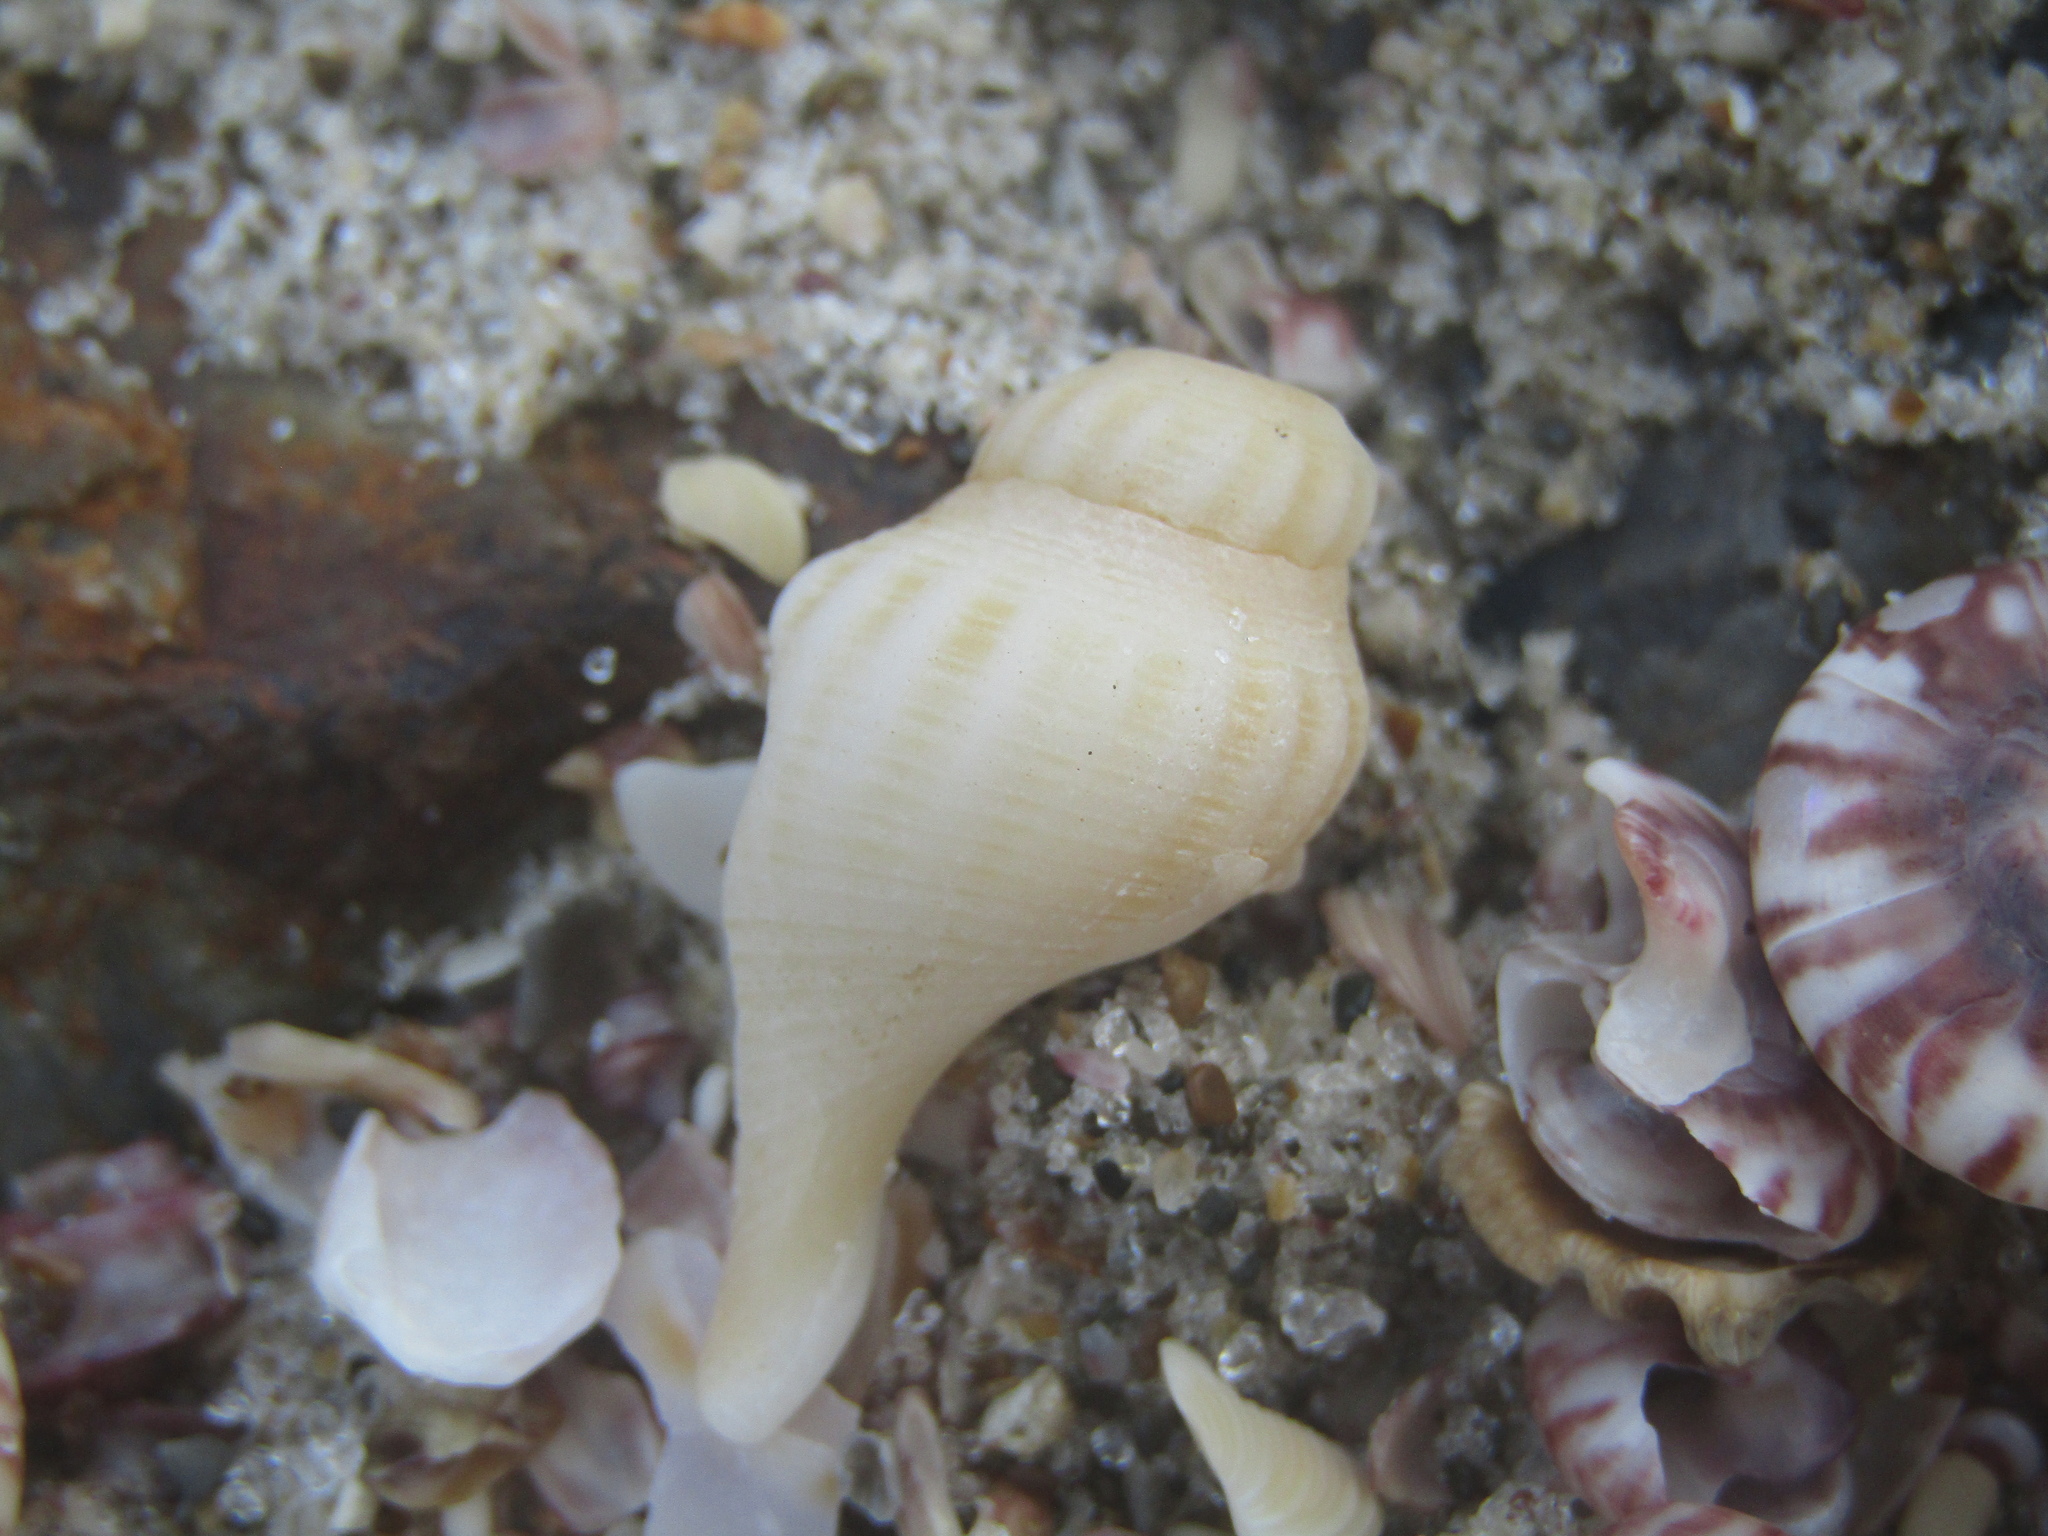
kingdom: Animalia
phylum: Mollusca
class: Gastropoda
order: Neogastropoda
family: Tudiclidae
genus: Aeneator
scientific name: Aeneator marshalli
